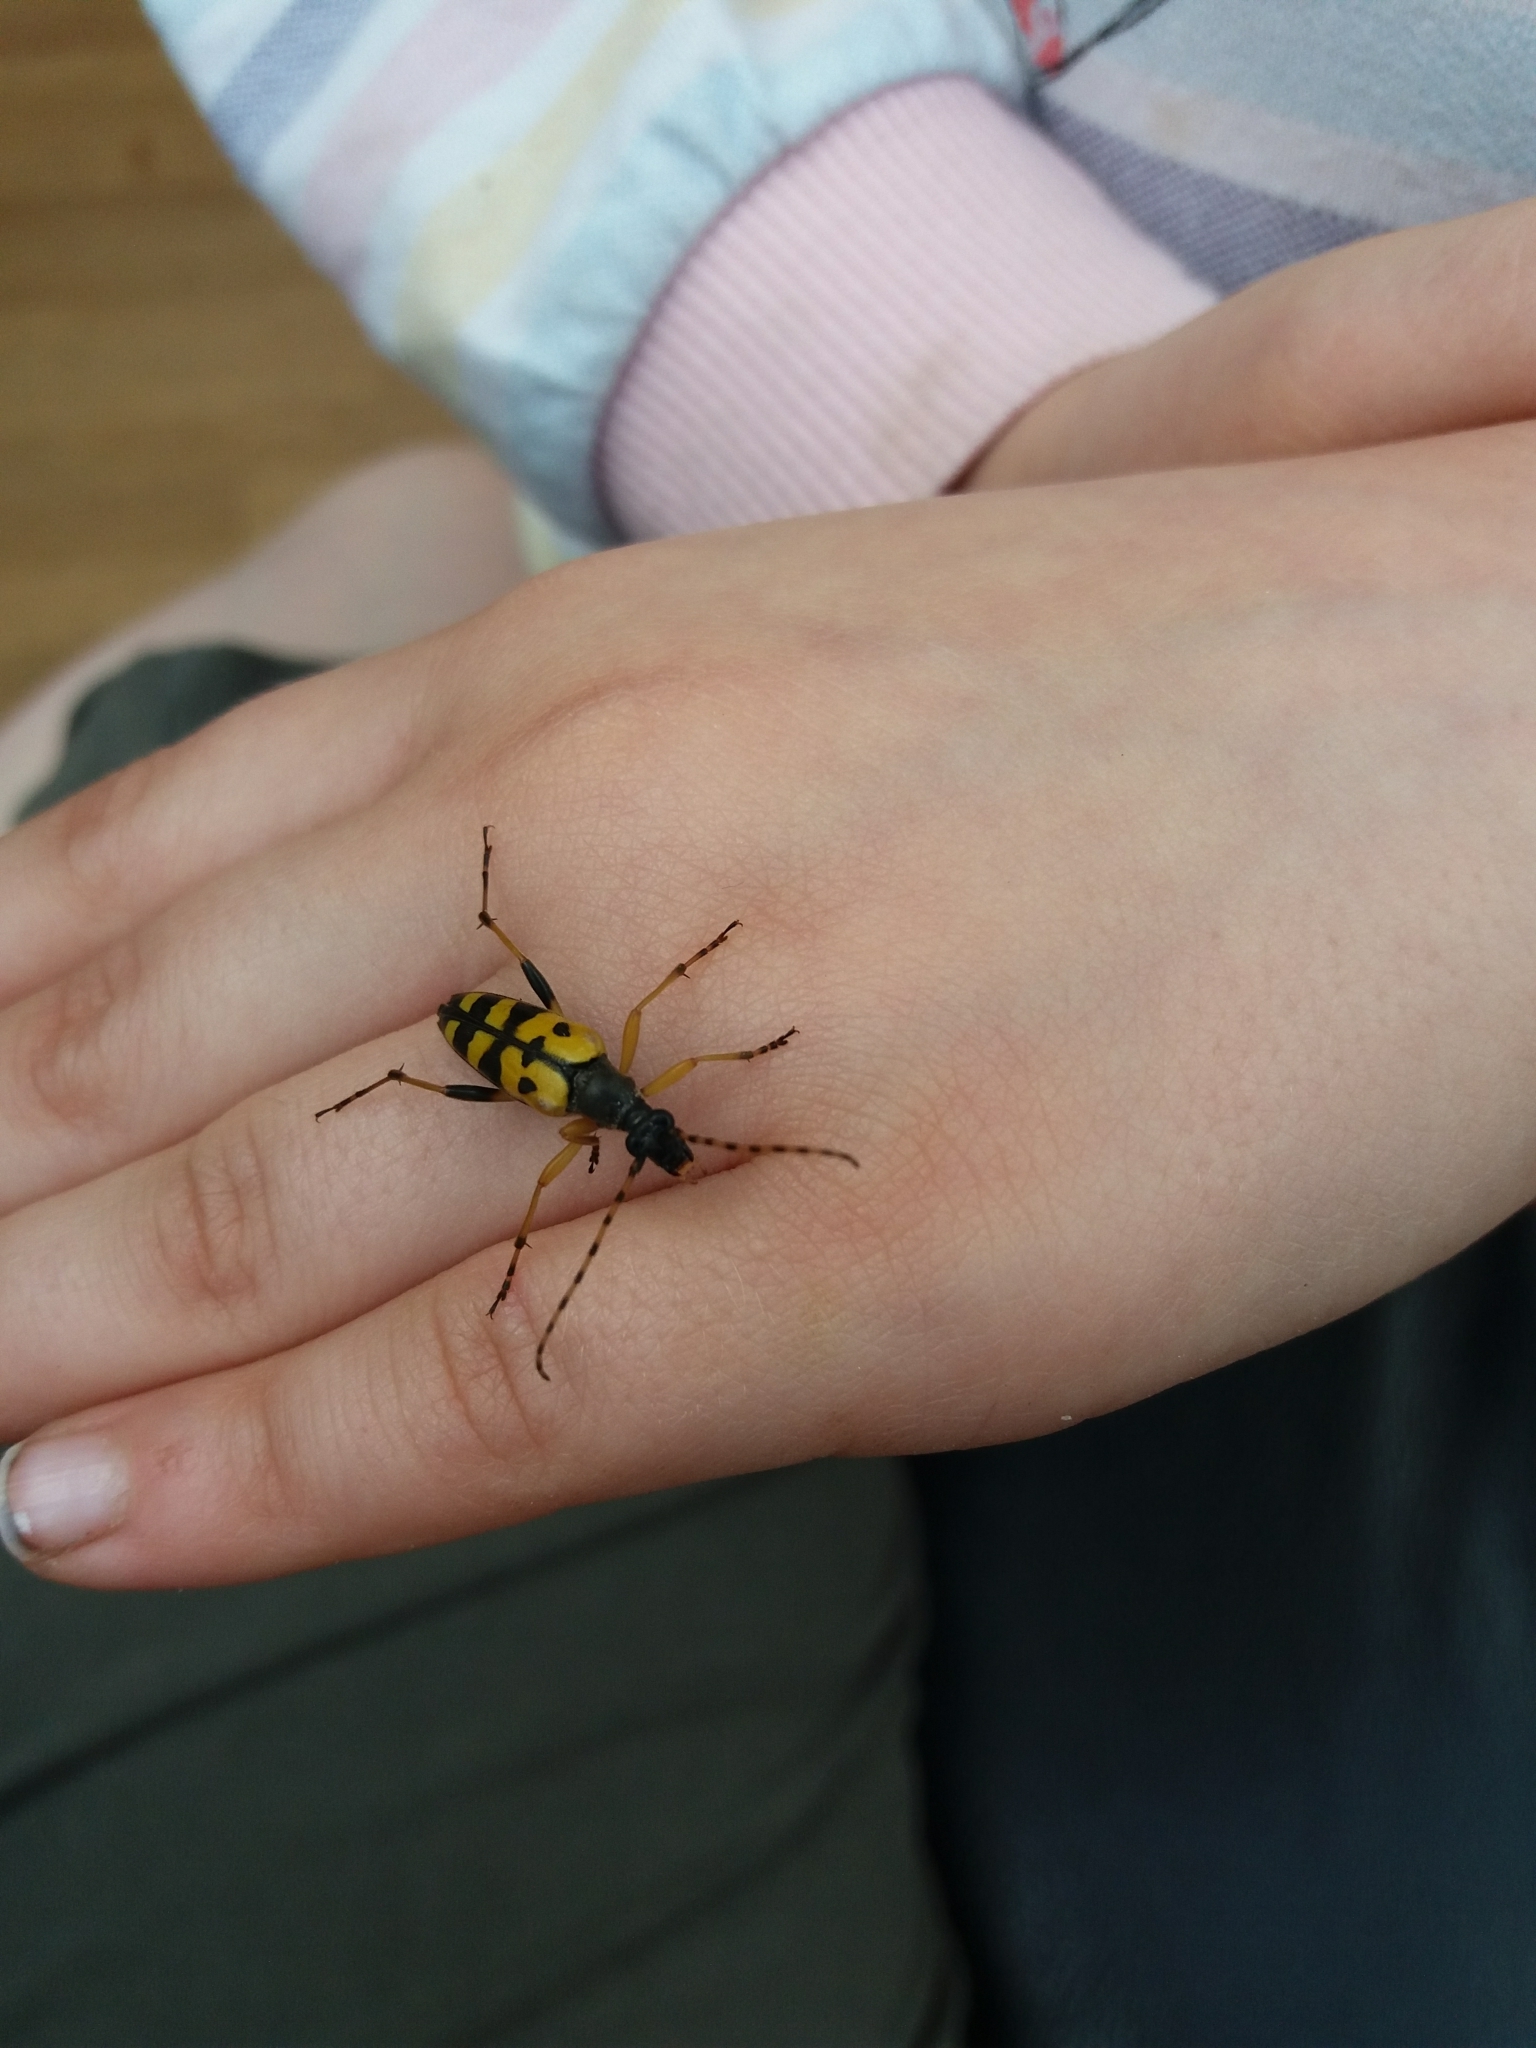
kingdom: Animalia
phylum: Arthropoda
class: Insecta
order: Coleoptera
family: Cerambycidae
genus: Rutpela
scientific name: Rutpela maculata
